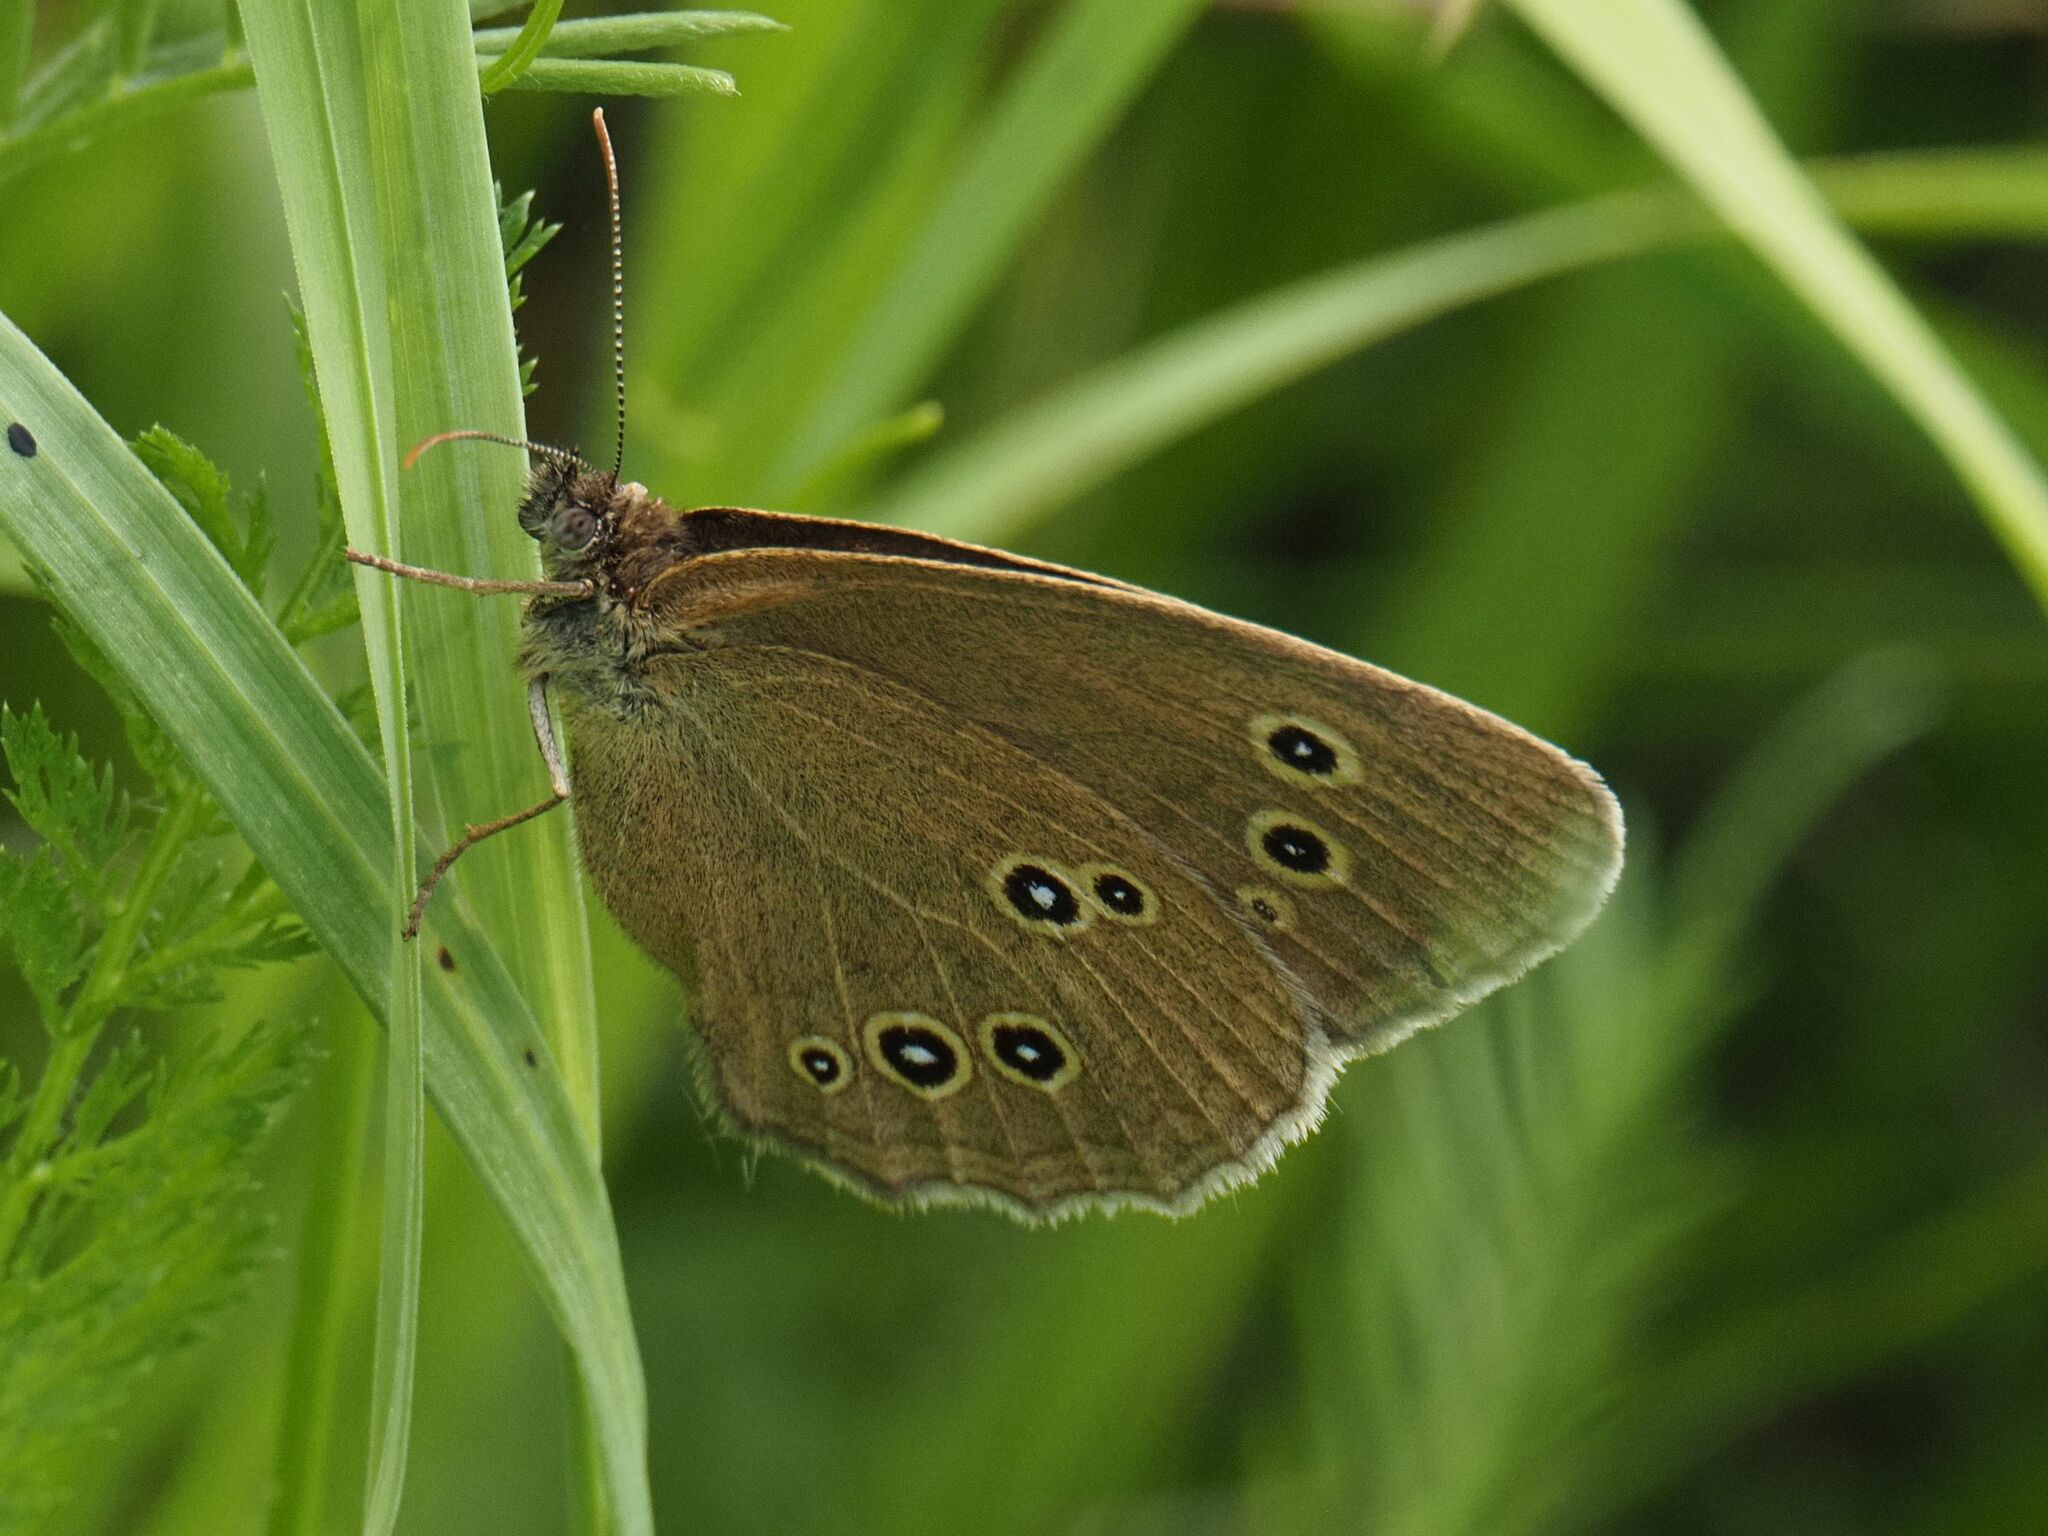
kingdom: Animalia
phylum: Arthropoda
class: Insecta
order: Lepidoptera
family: Nymphalidae
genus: Aphantopus
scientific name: Aphantopus hyperantus
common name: Ringlet
